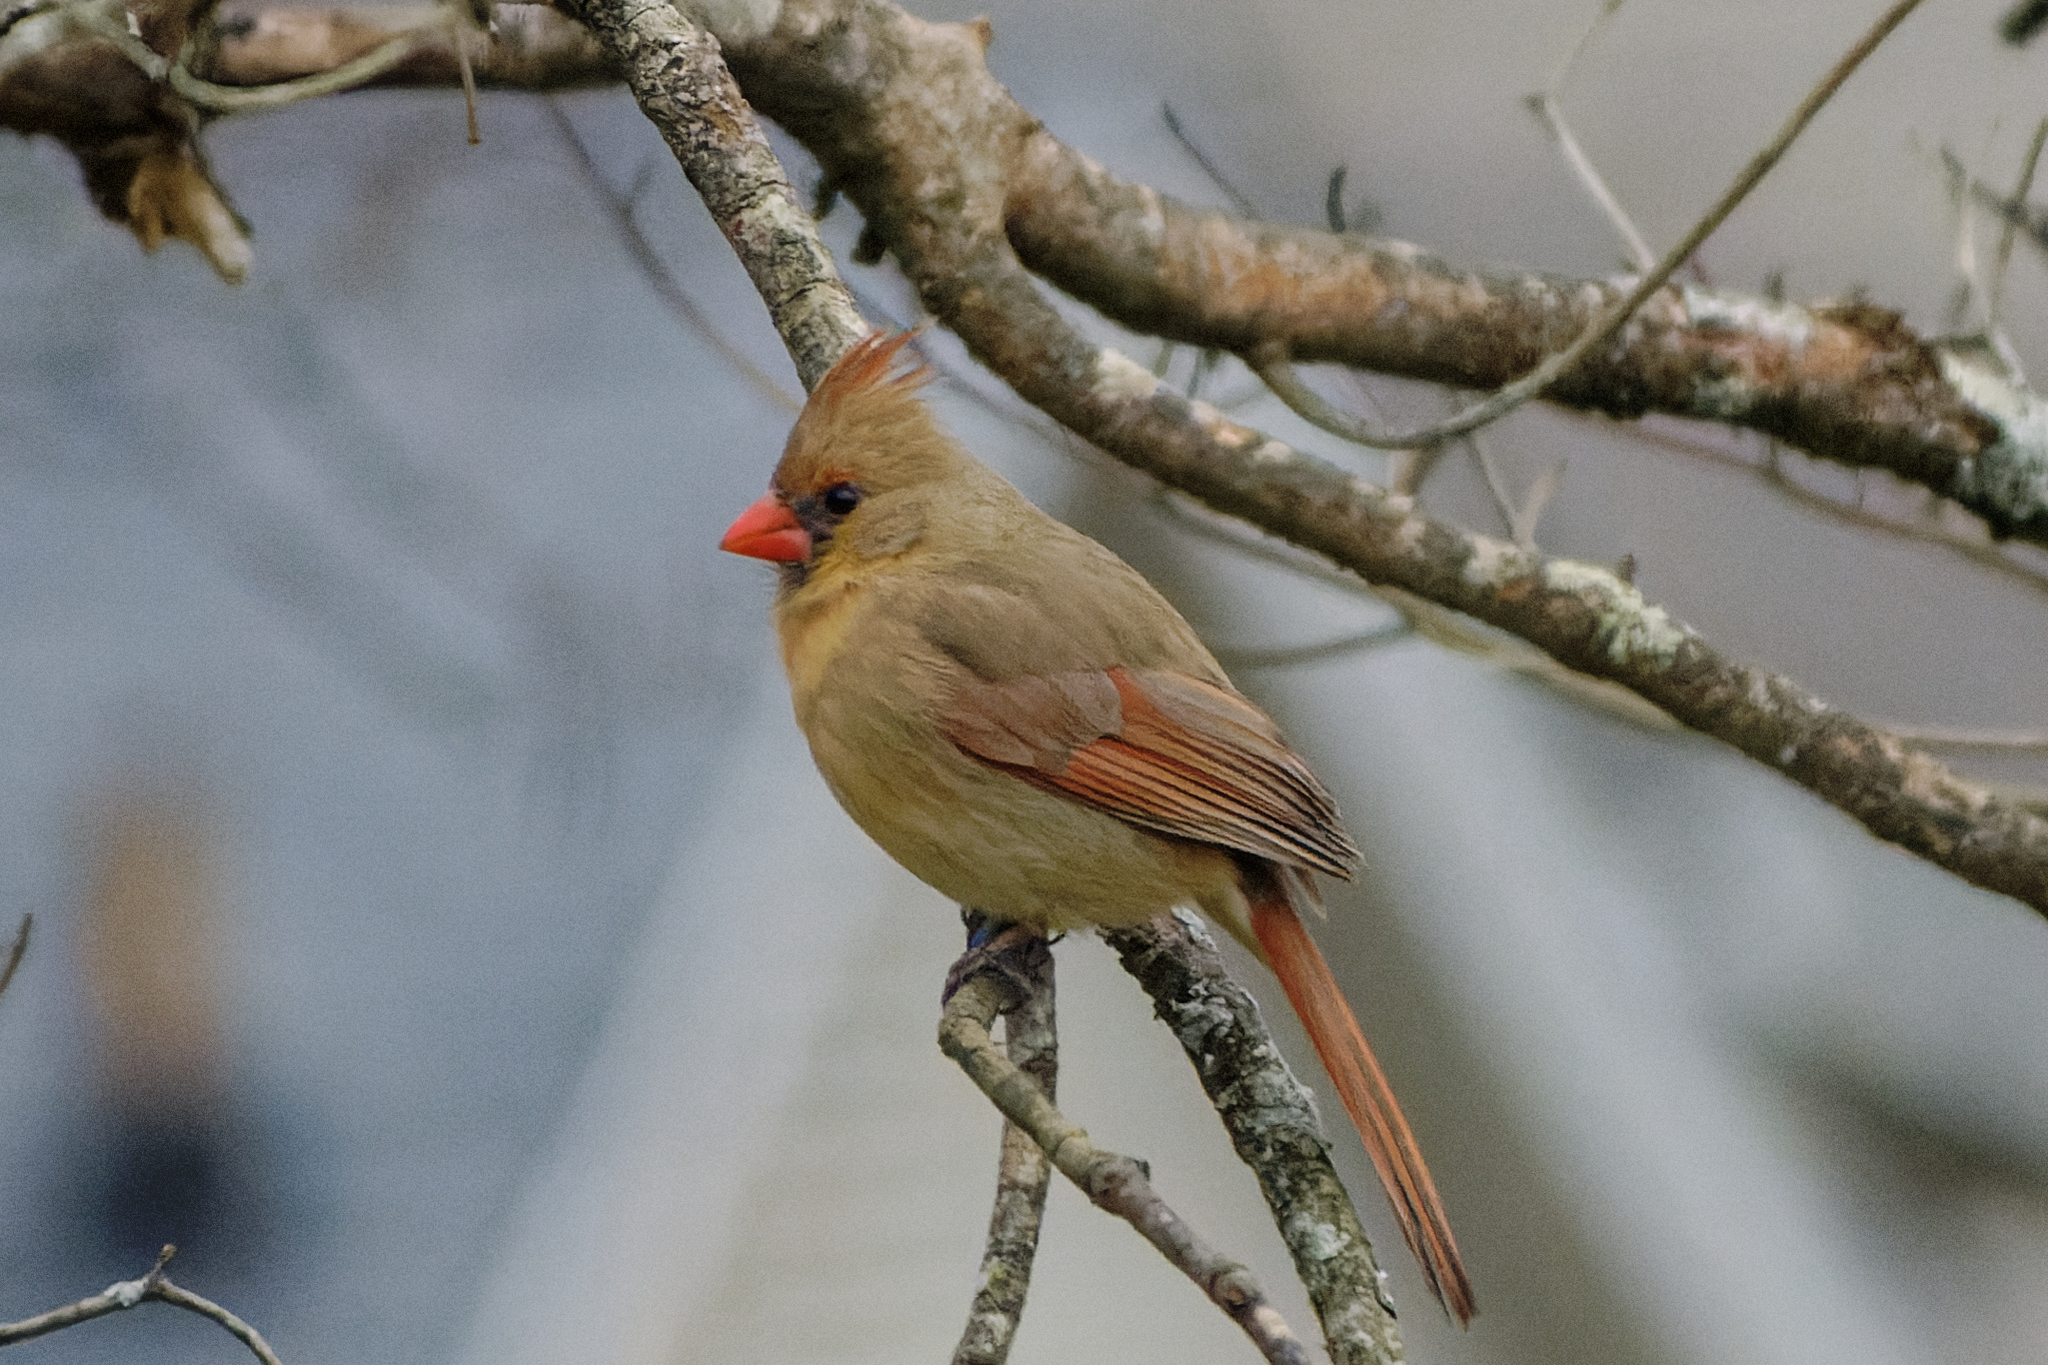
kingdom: Animalia
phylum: Chordata
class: Aves
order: Passeriformes
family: Cardinalidae
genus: Cardinalis
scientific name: Cardinalis cardinalis
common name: Northern cardinal
